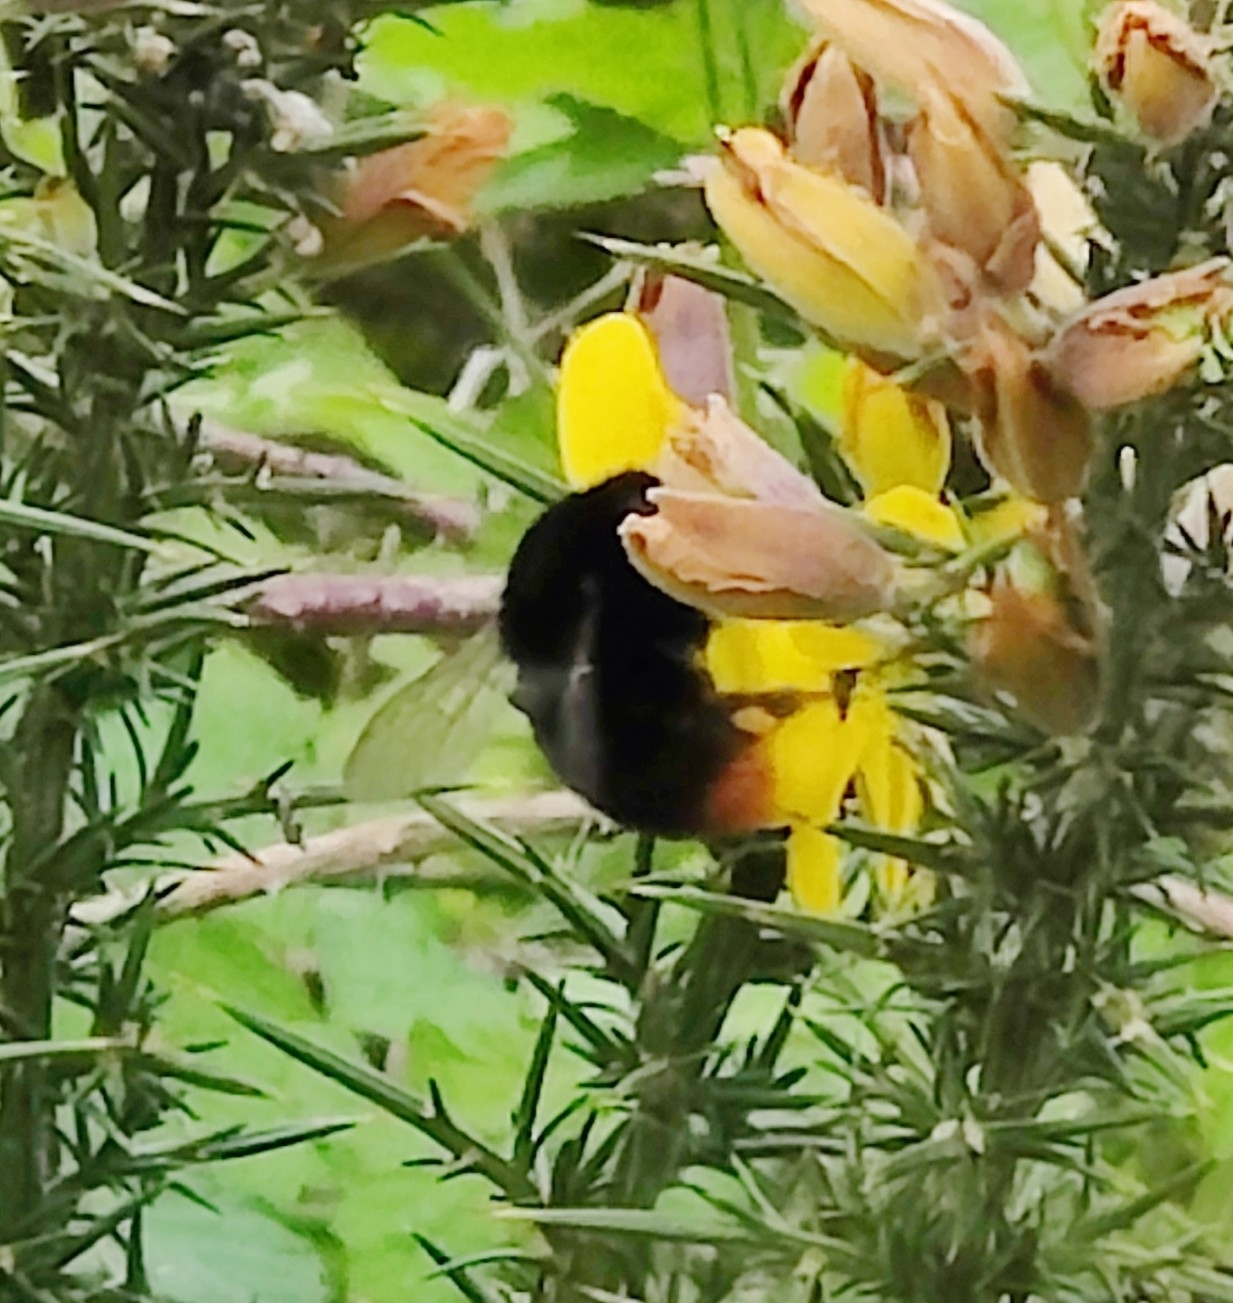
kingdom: Animalia
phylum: Arthropoda
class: Insecta
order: Hymenoptera
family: Apidae
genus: Bombus
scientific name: Bombus lapidarius
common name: Large red-tailed humble-bee
